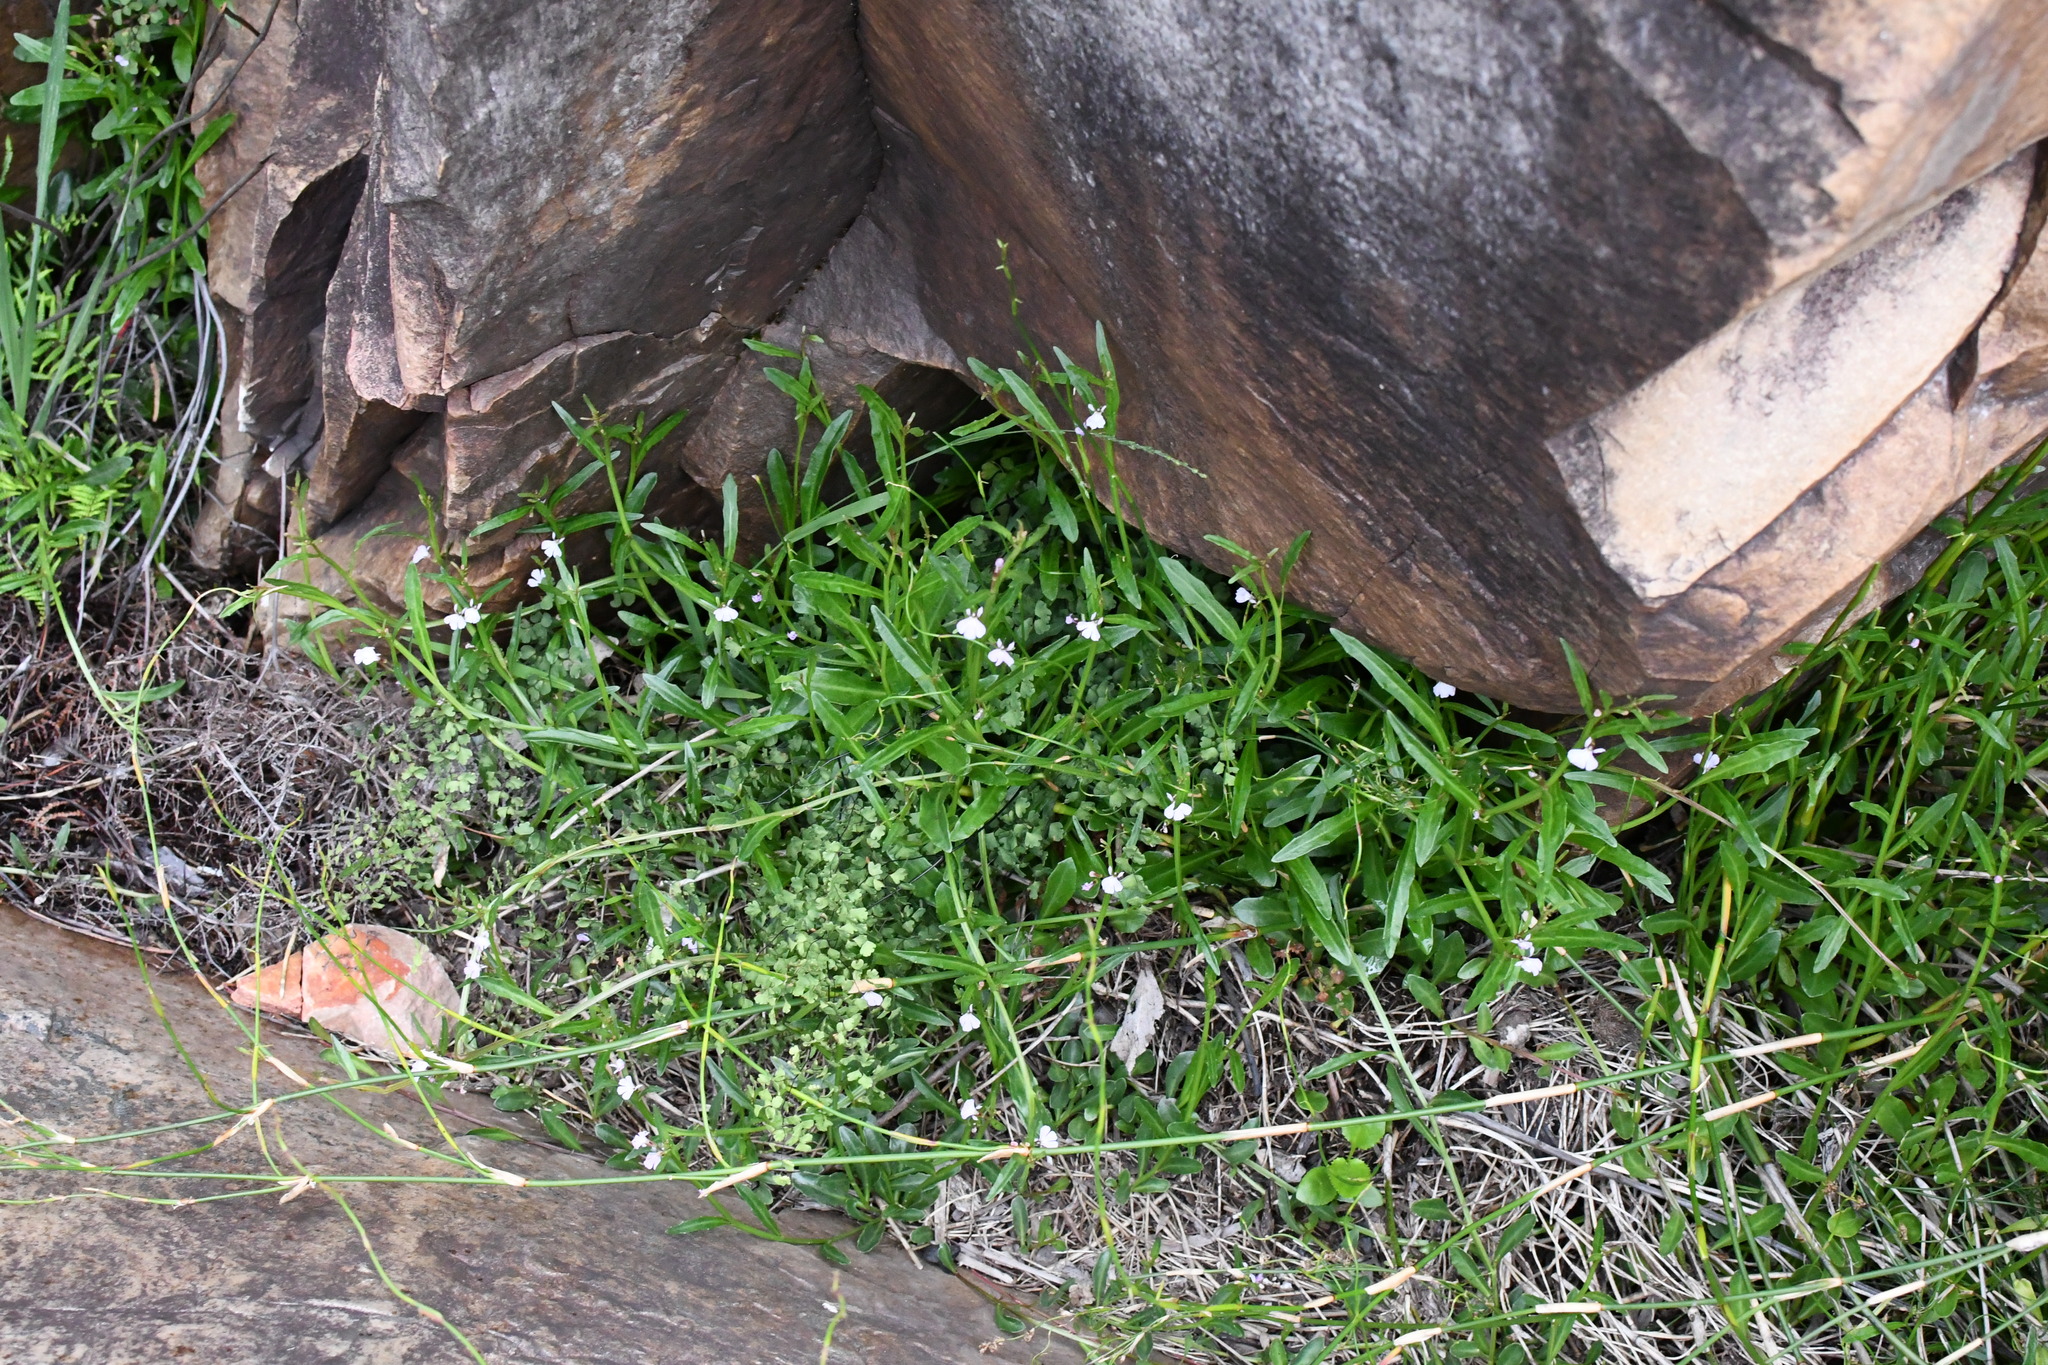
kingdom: Plantae
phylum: Tracheophyta
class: Magnoliopsida
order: Asterales
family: Campanulaceae
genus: Lobelia
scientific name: Lobelia anceps
